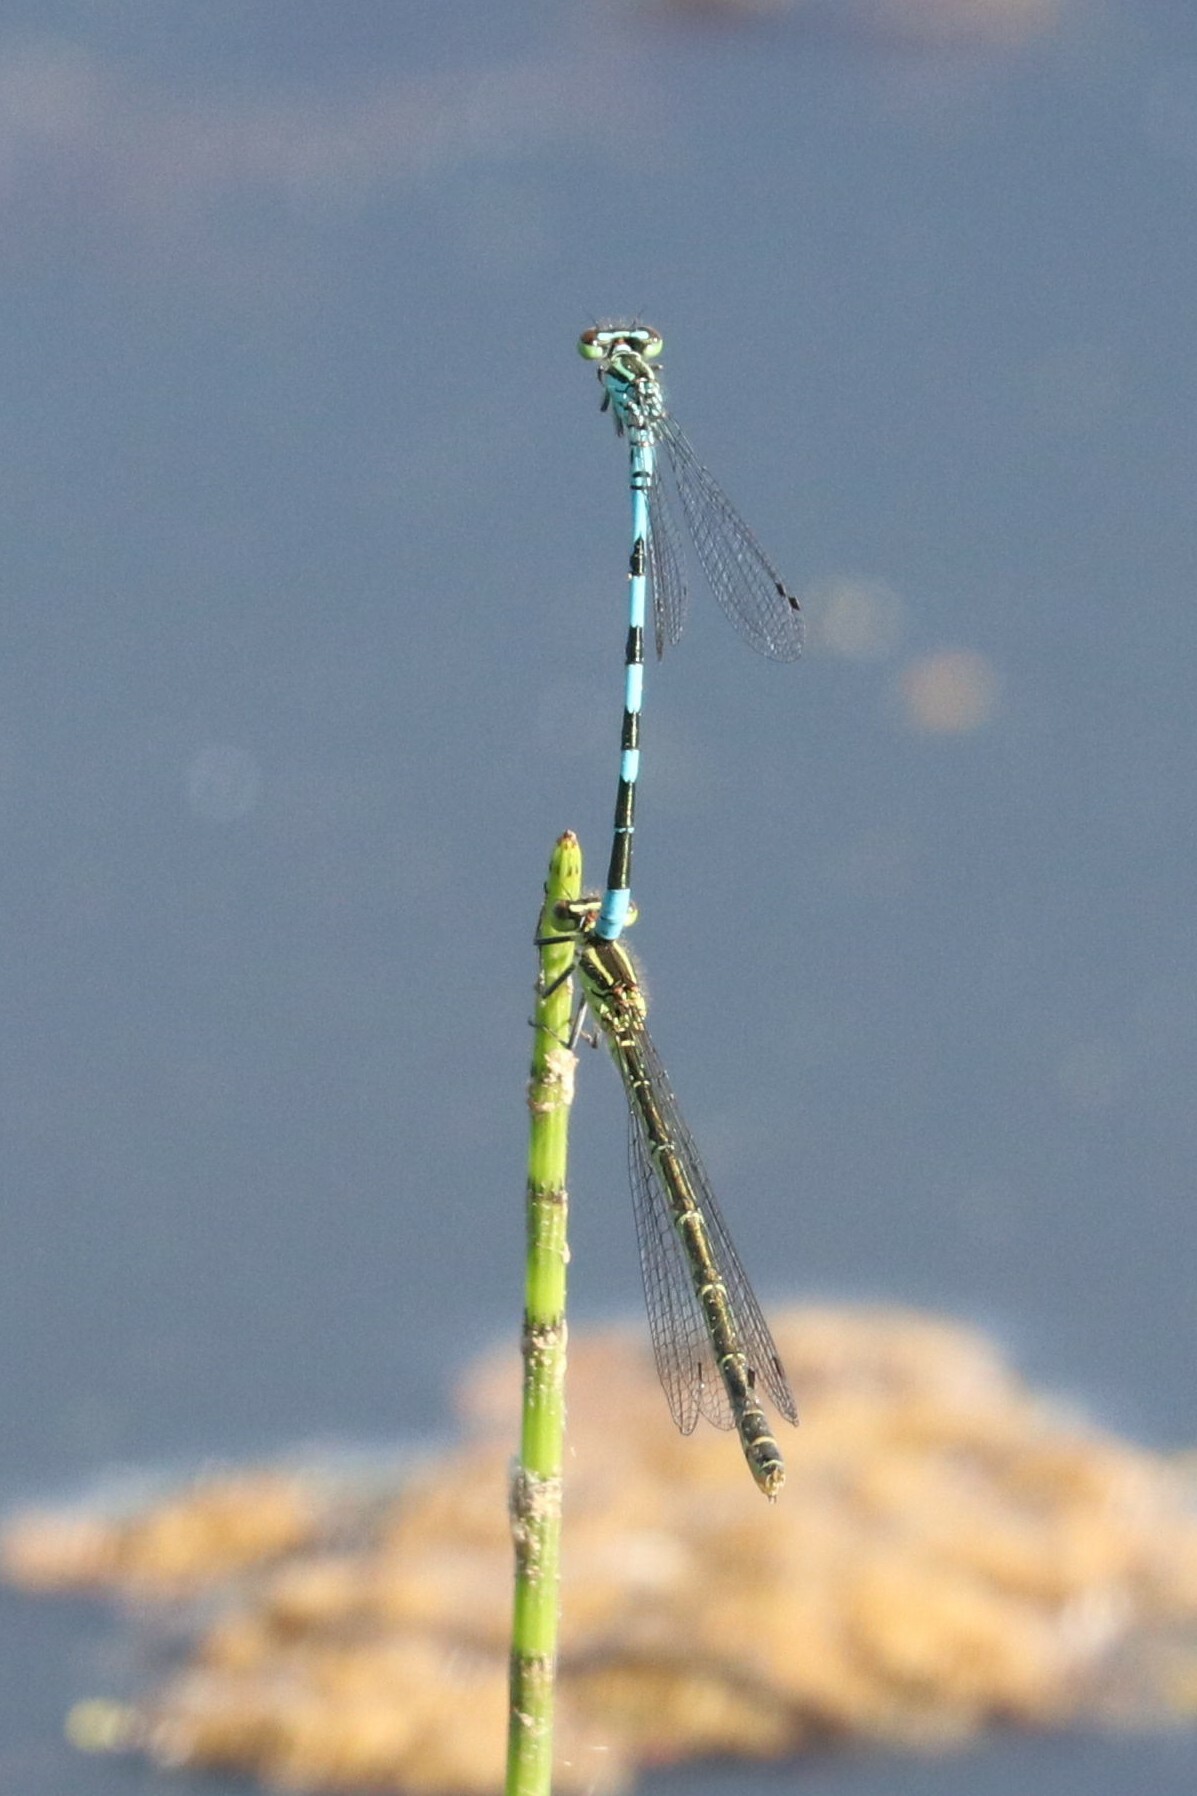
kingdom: Animalia
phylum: Arthropoda
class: Insecta
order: Odonata
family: Coenagrionidae
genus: Coenagrion
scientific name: Coenagrion hastulatum
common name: Spearhead bluet
